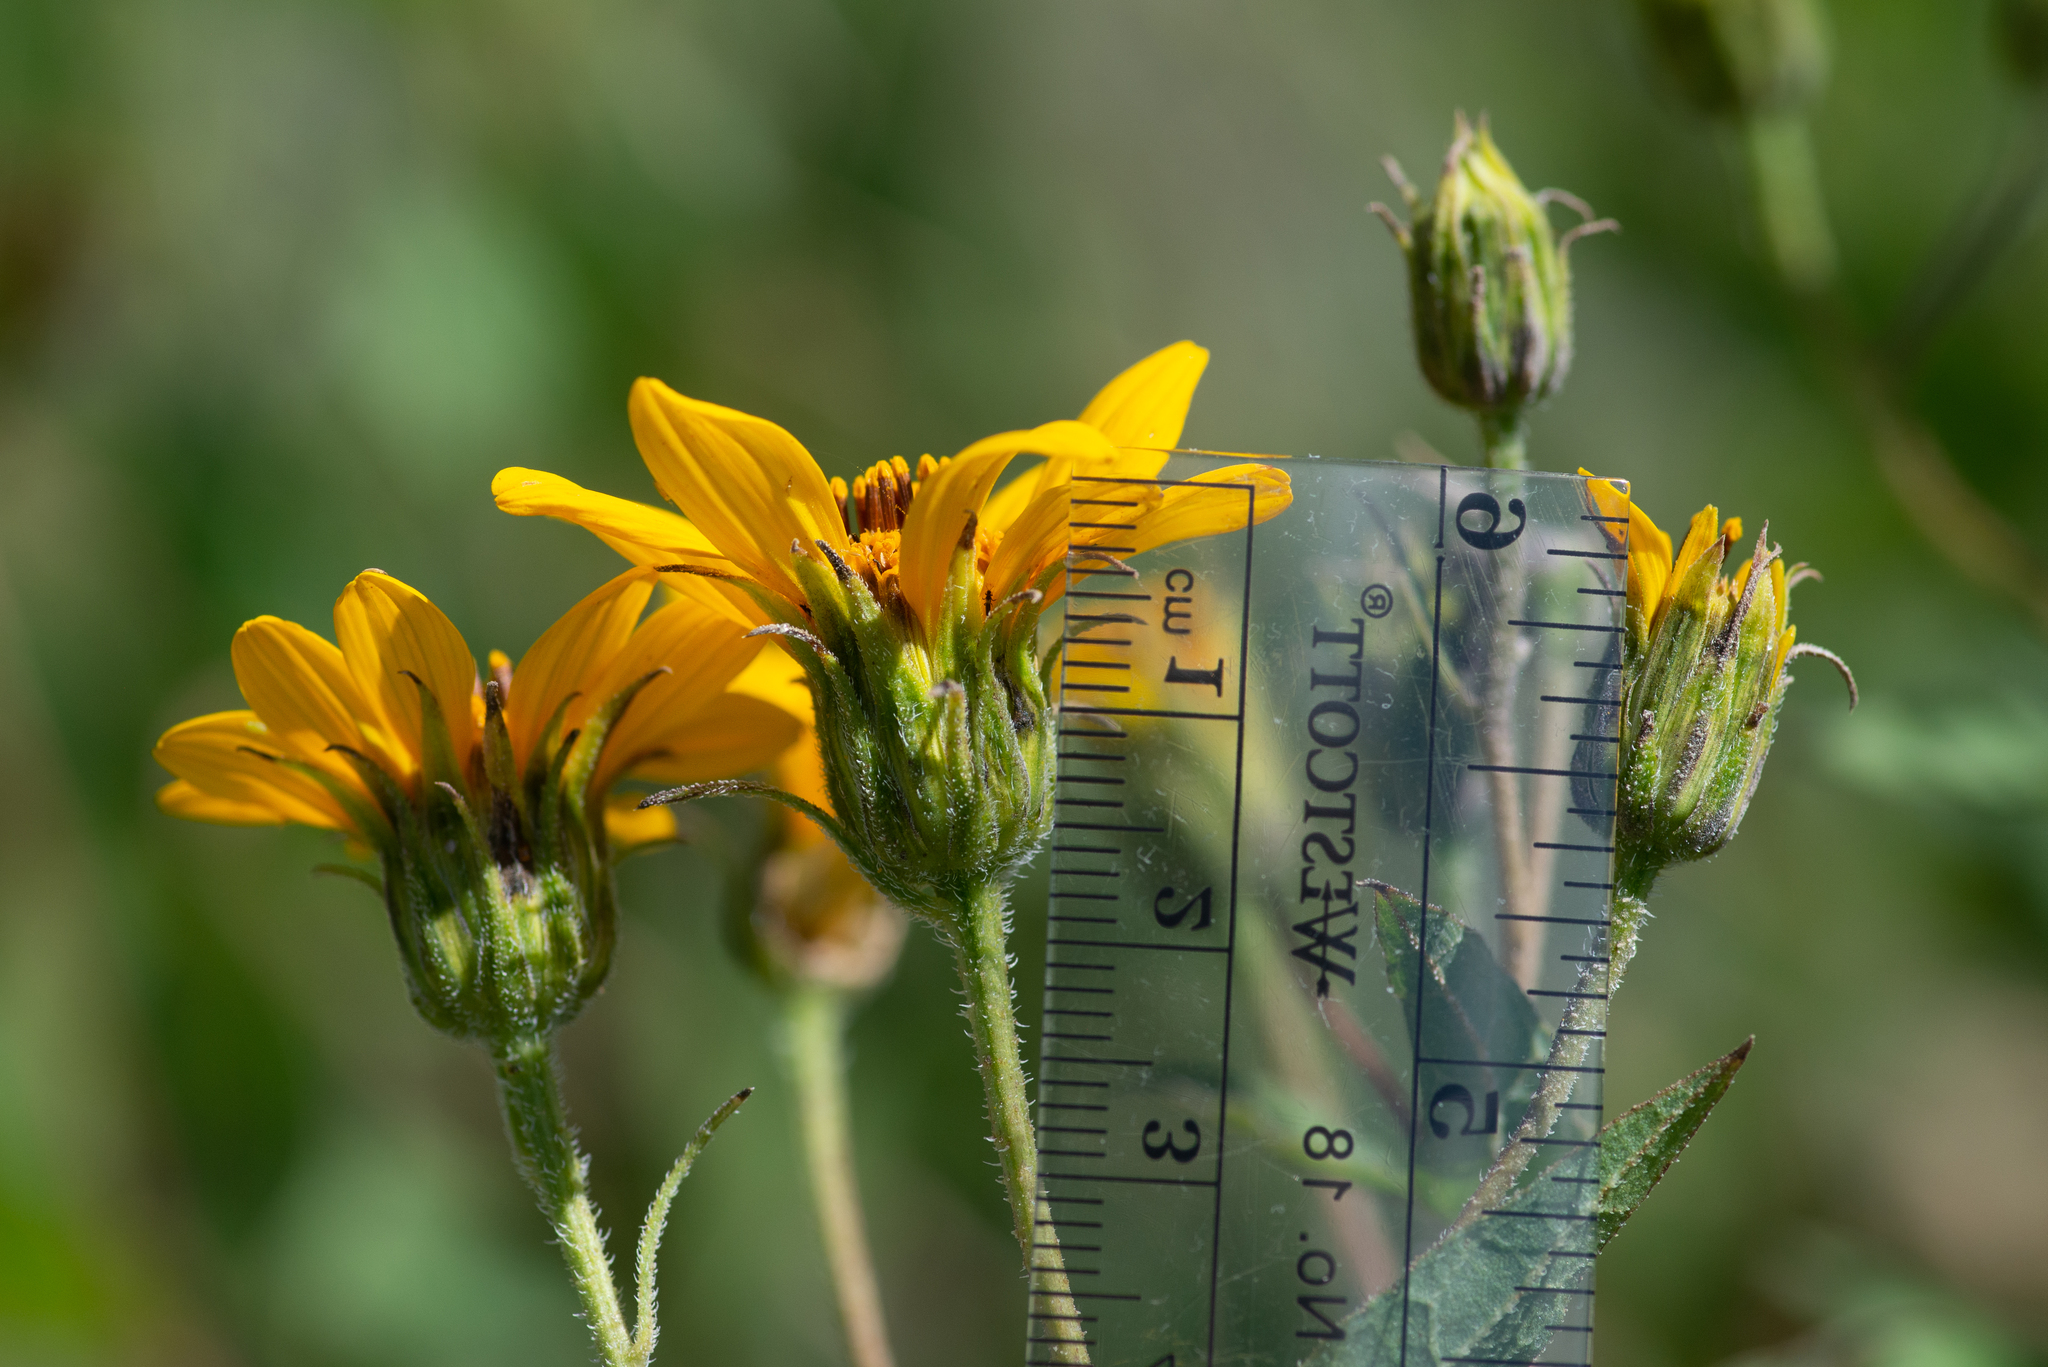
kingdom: Plantae
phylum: Tracheophyta
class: Magnoliopsida
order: Asterales
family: Asteraceae
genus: Aldama
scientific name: Aldama cordifolia
